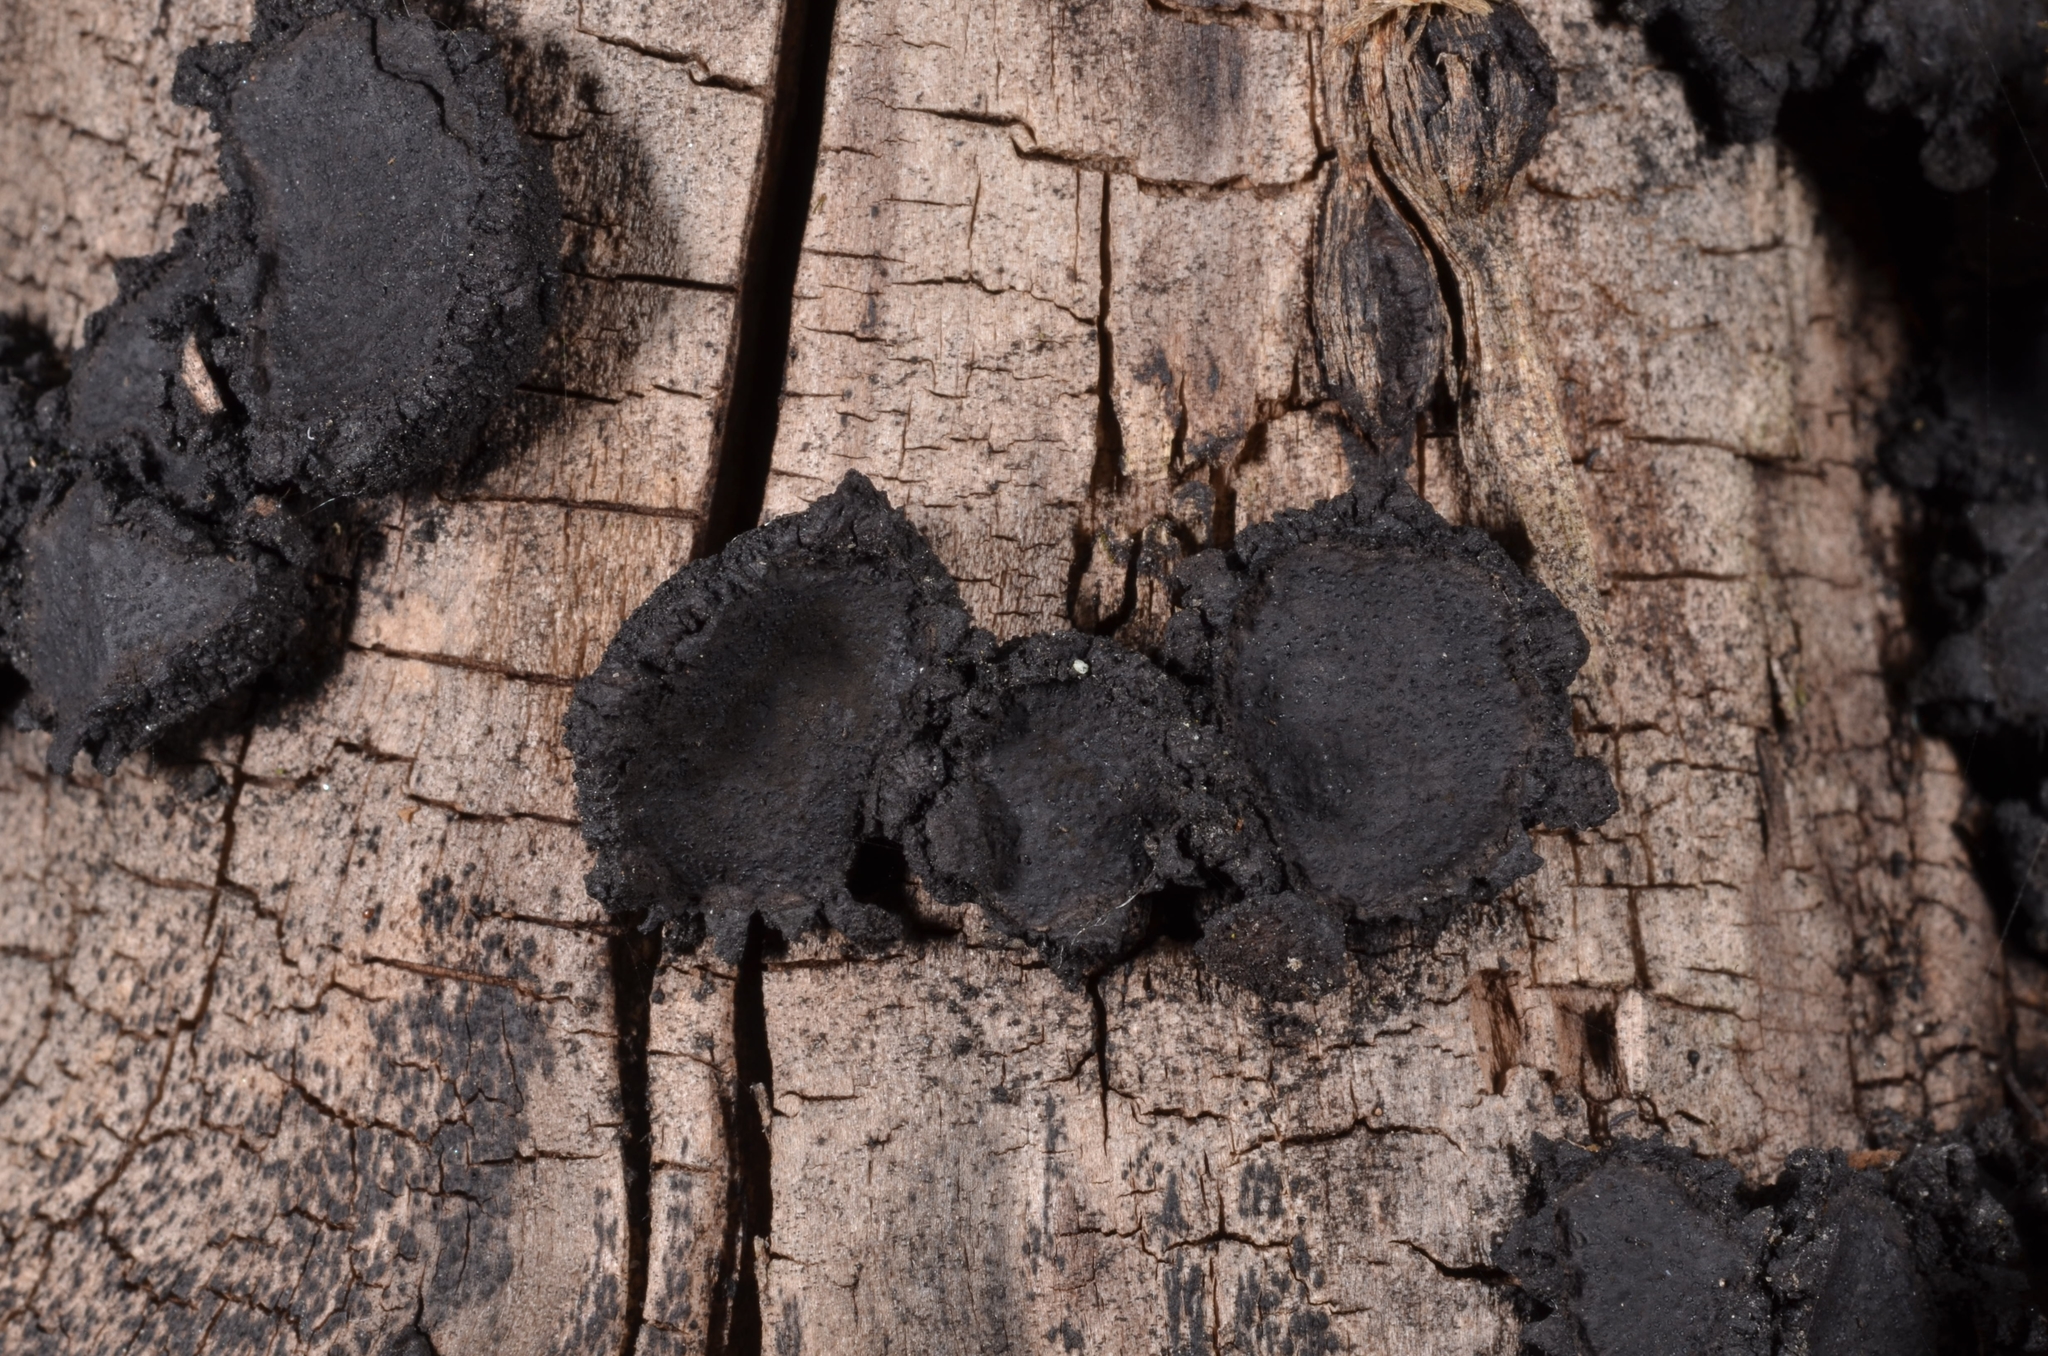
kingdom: Fungi
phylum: Ascomycota
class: Sordariomycetes
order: Xylariales
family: Graphostromataceae
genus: Biscogniauxia
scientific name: Biscogniauxia repanda
